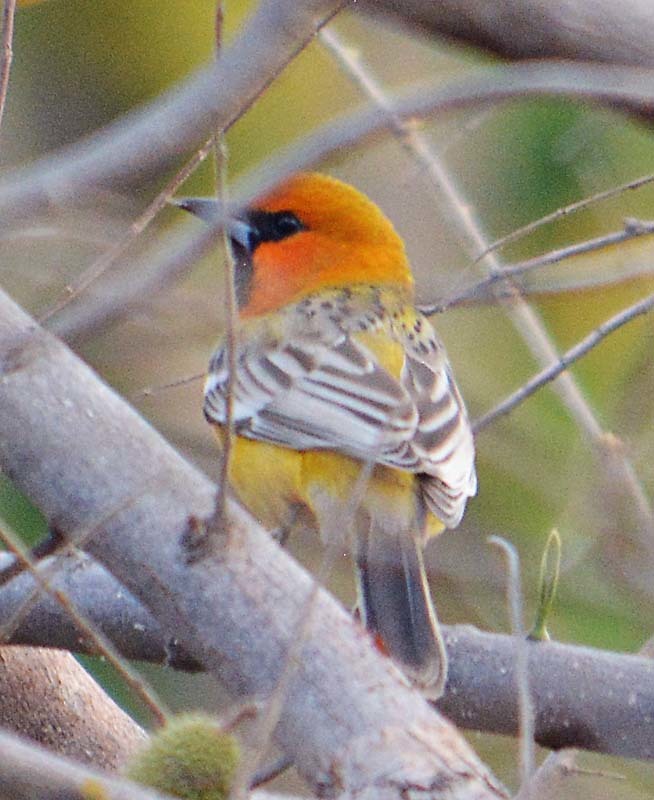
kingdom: Animalia
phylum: Chordata
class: Aves
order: Passeriformes
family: Icteridae
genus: Icterus
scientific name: Icterus pustulatus
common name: Streak-backed oriole
